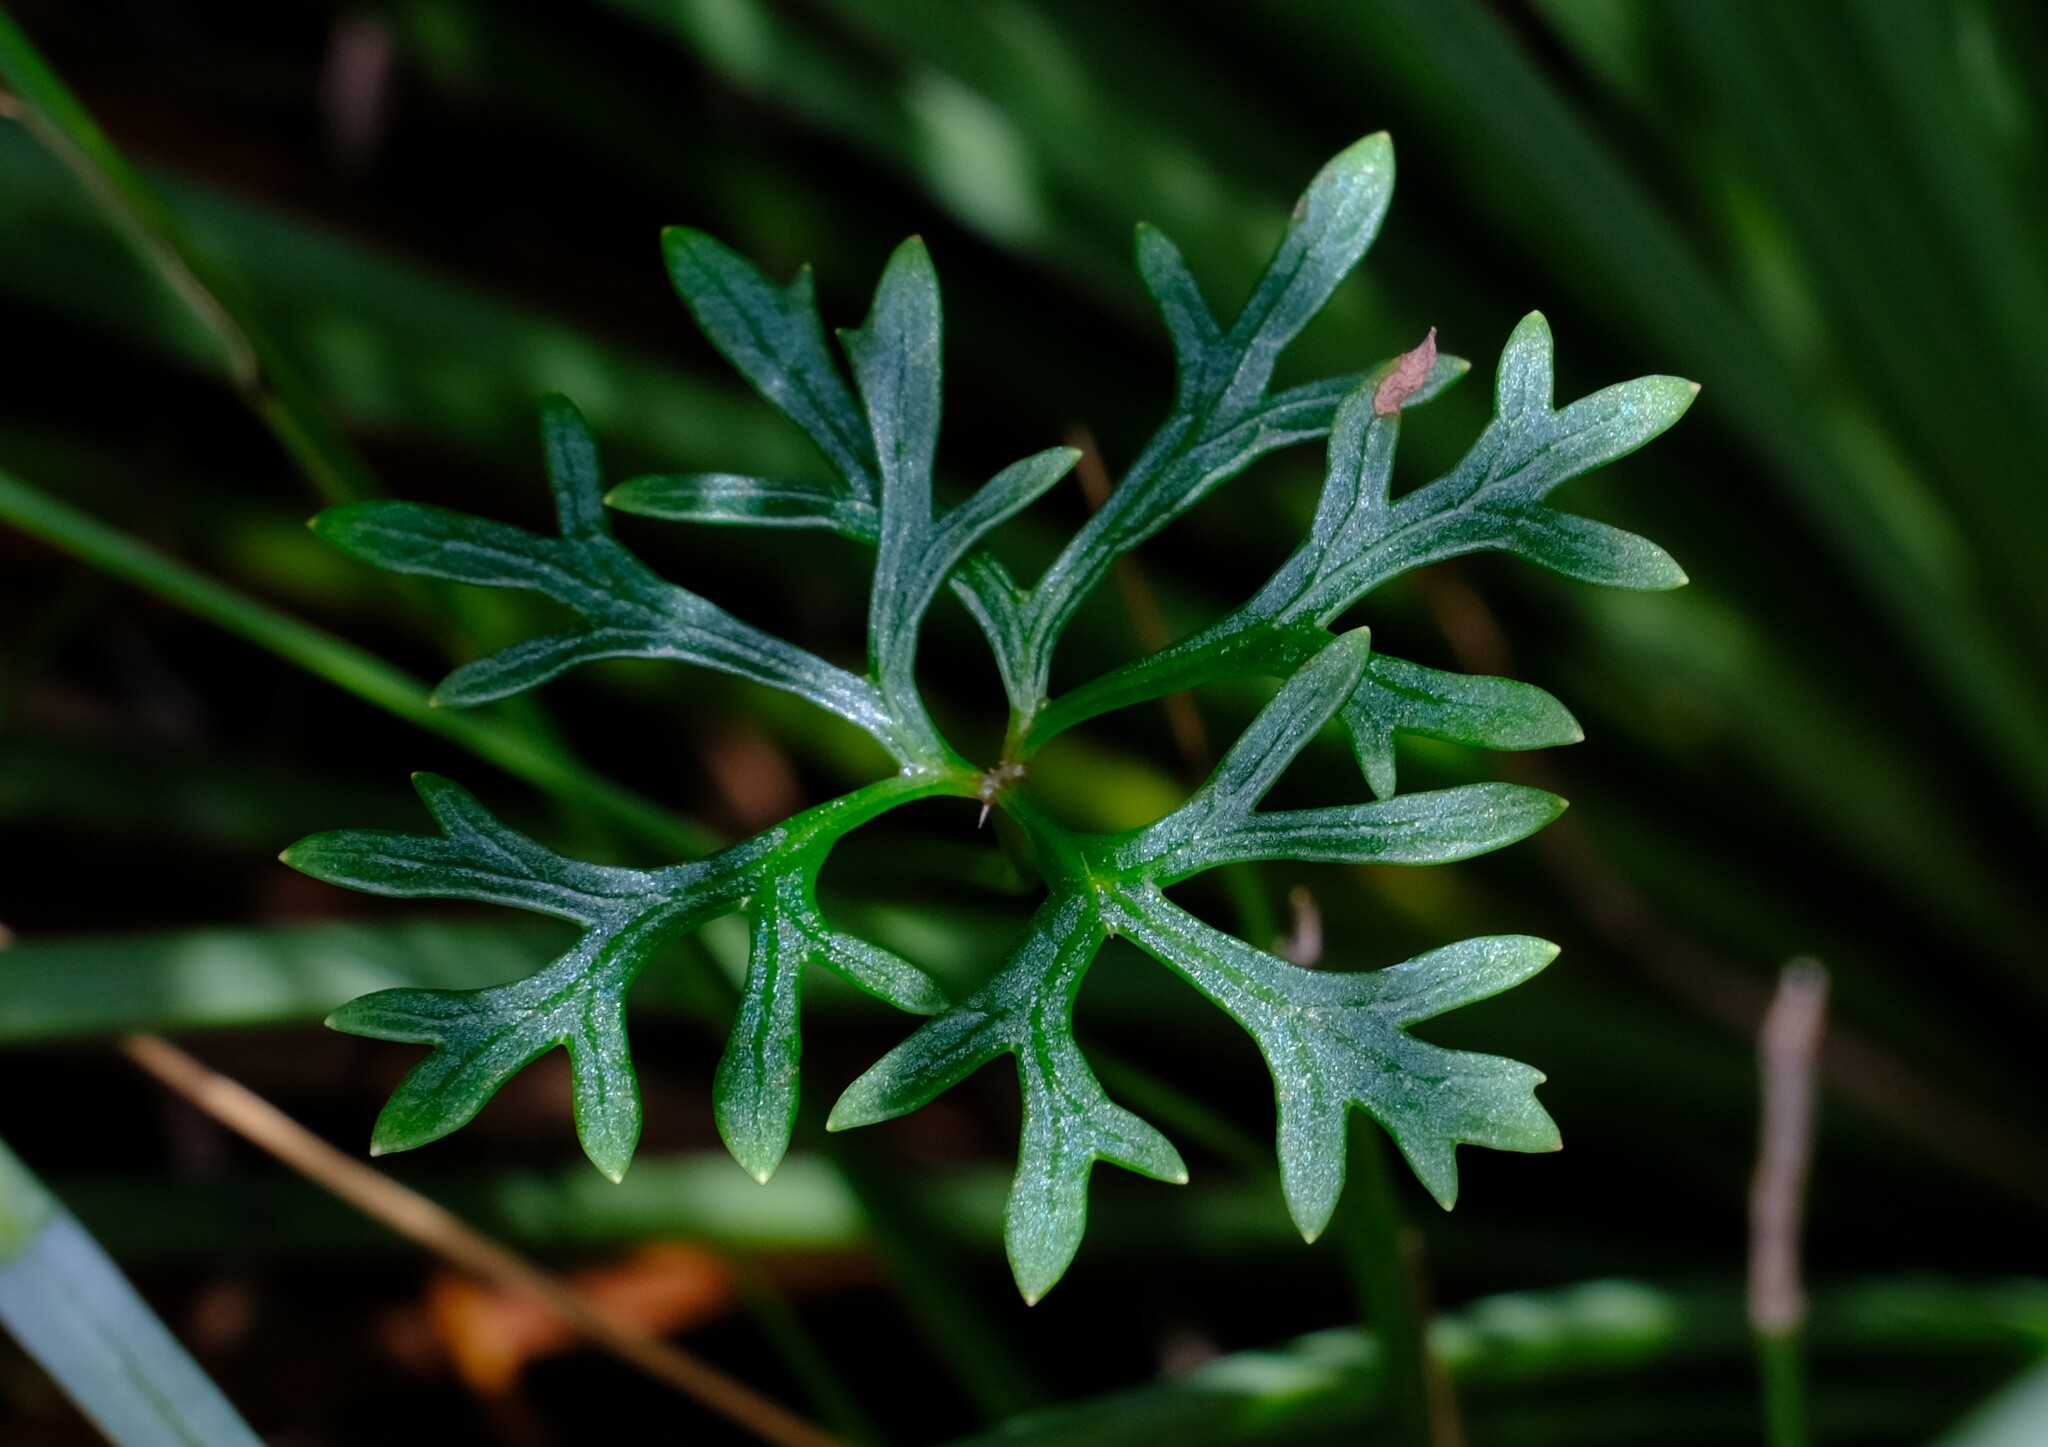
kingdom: Plantae
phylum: Tracheophyta
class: Magnoliopsida
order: Apiales
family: Araliaceae
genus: Trachymene
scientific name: Trachymene incisa
